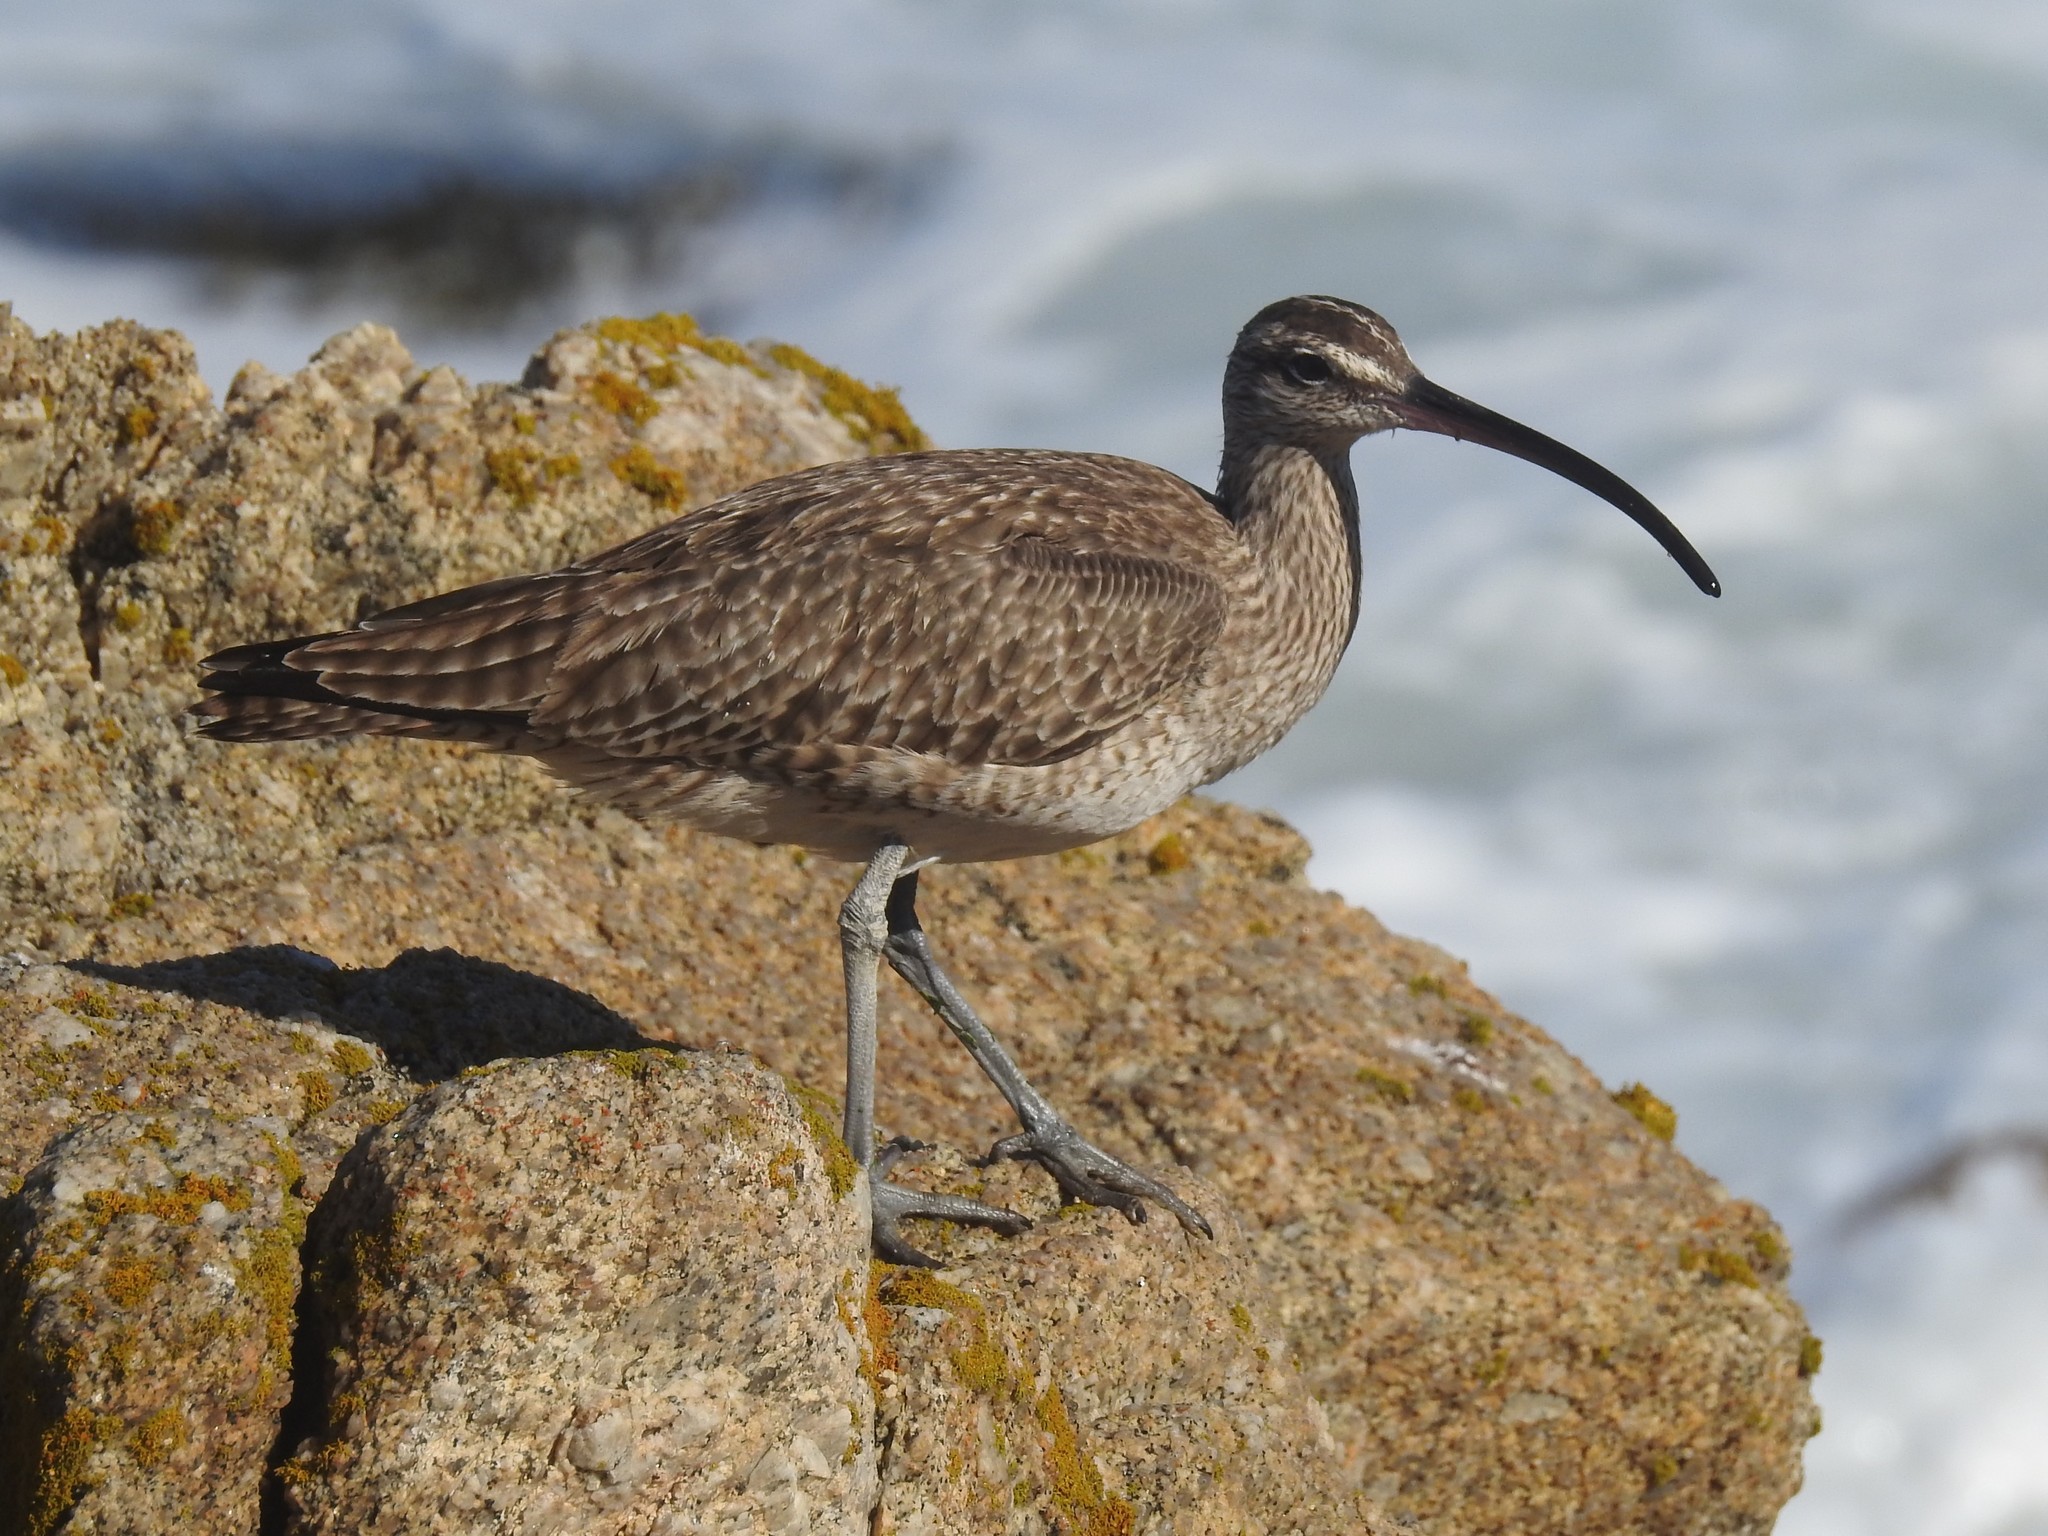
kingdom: Animalia
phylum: Chordata
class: Aves
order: Charadriiformes
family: Scolopacidae
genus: Numenius
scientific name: Numenius phaeopus
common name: Whimbrel
